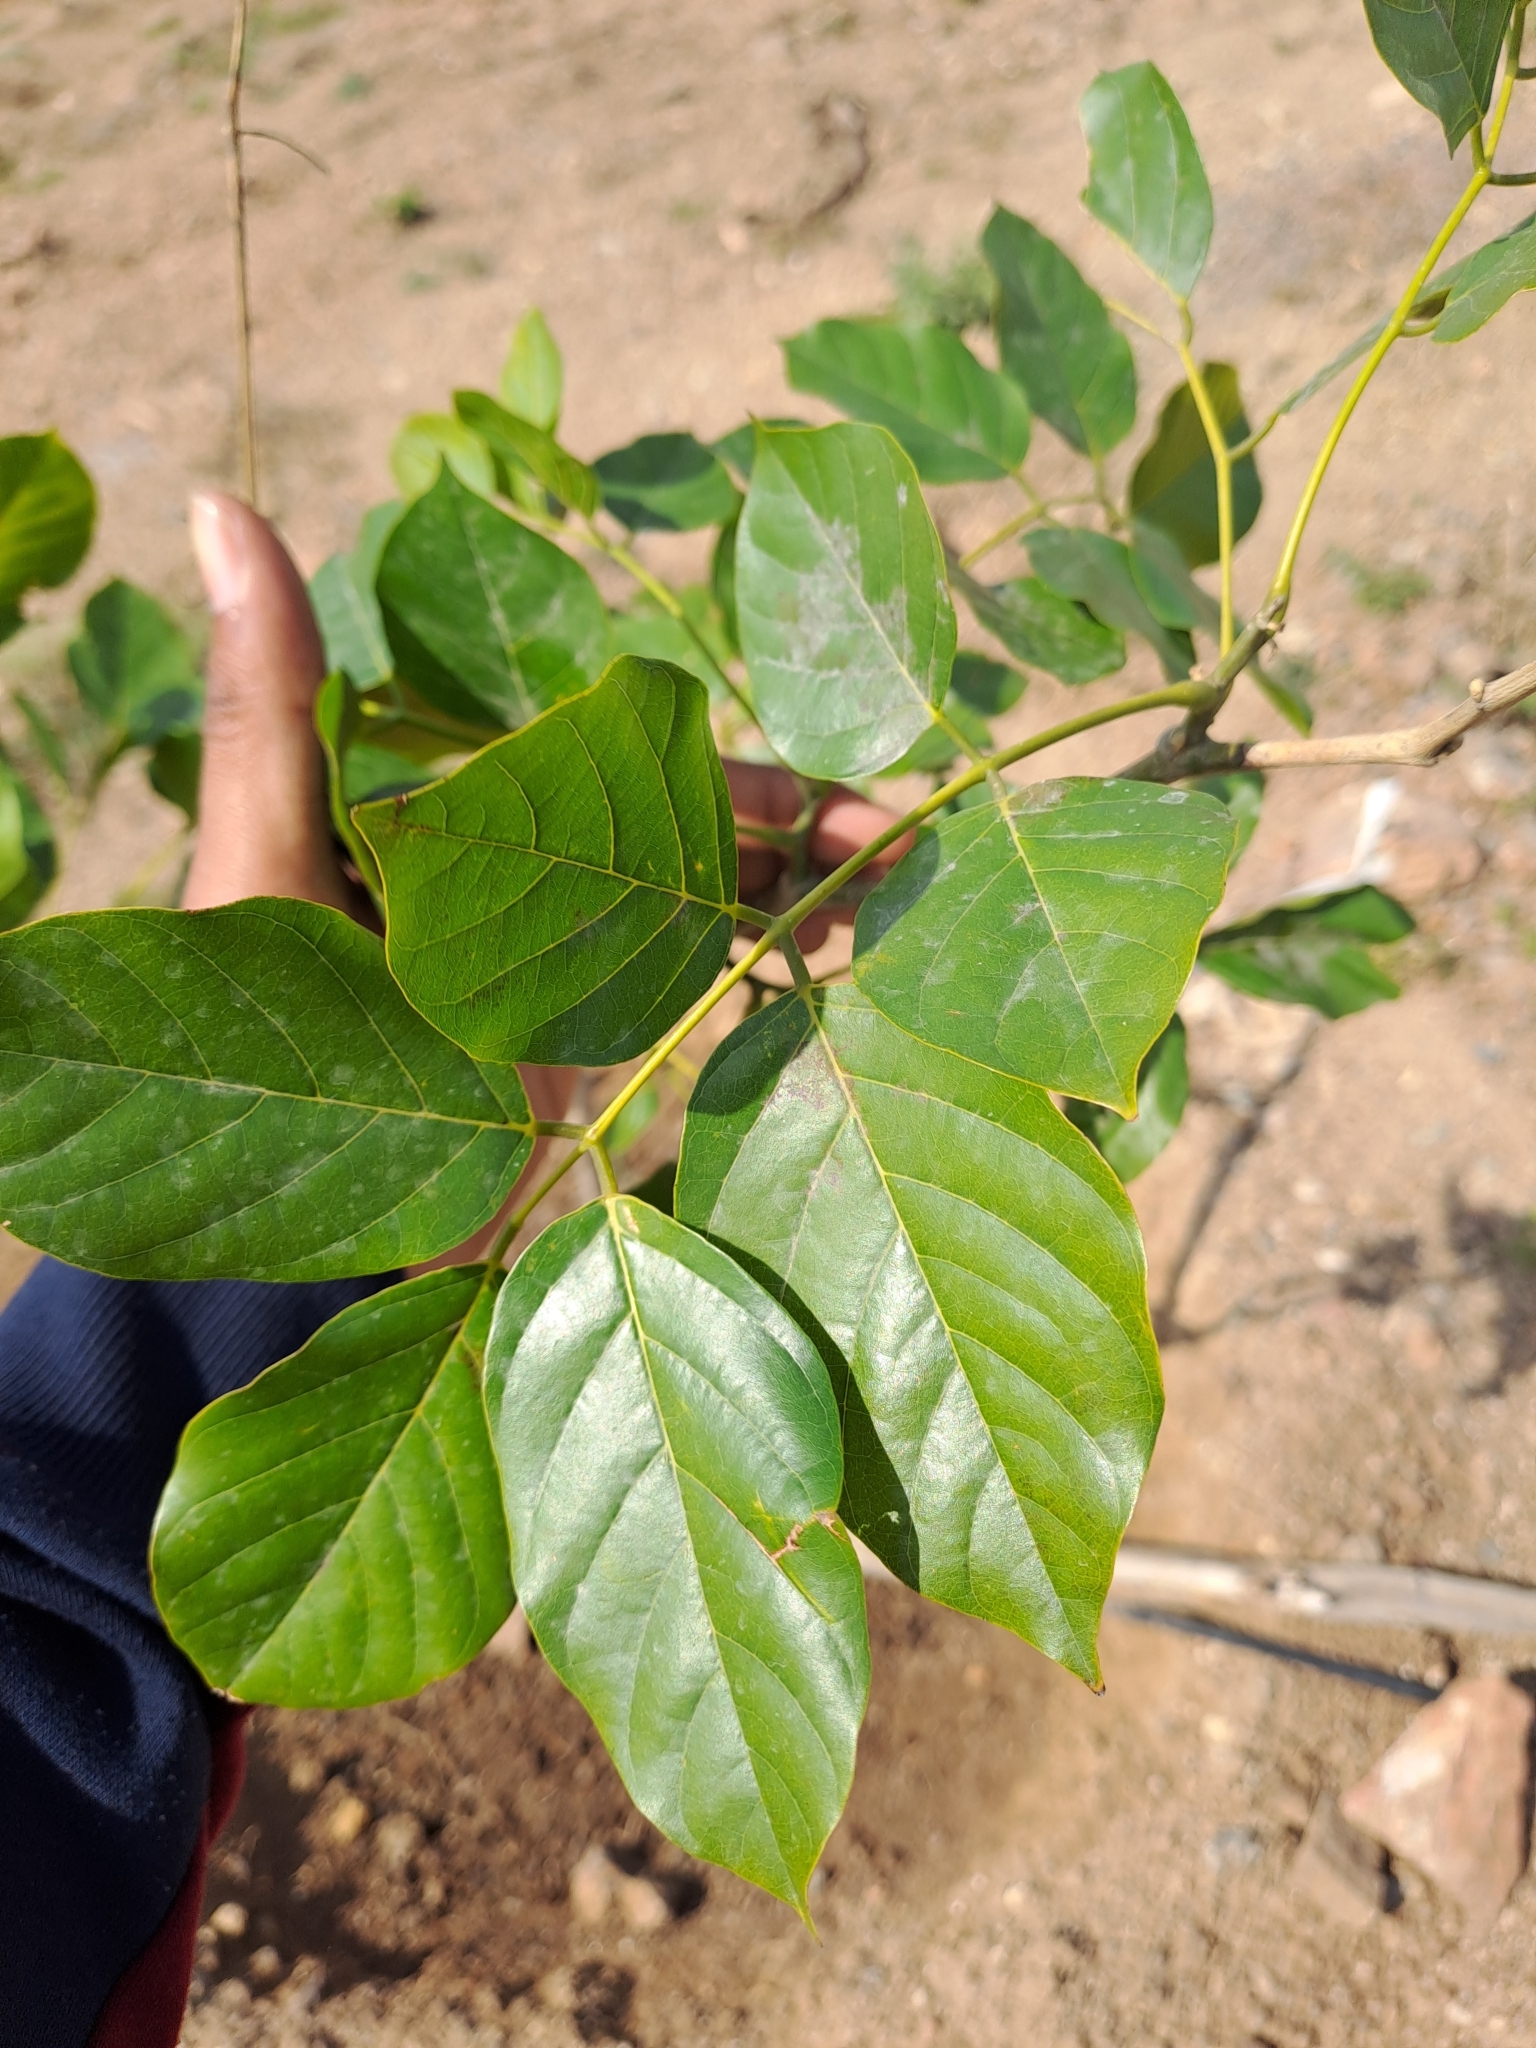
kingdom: Plantae
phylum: Tracheophyta
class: Magnoliopsida
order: Fabales
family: Fabaceae
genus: Pongamia
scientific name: Pongamia pinnata
